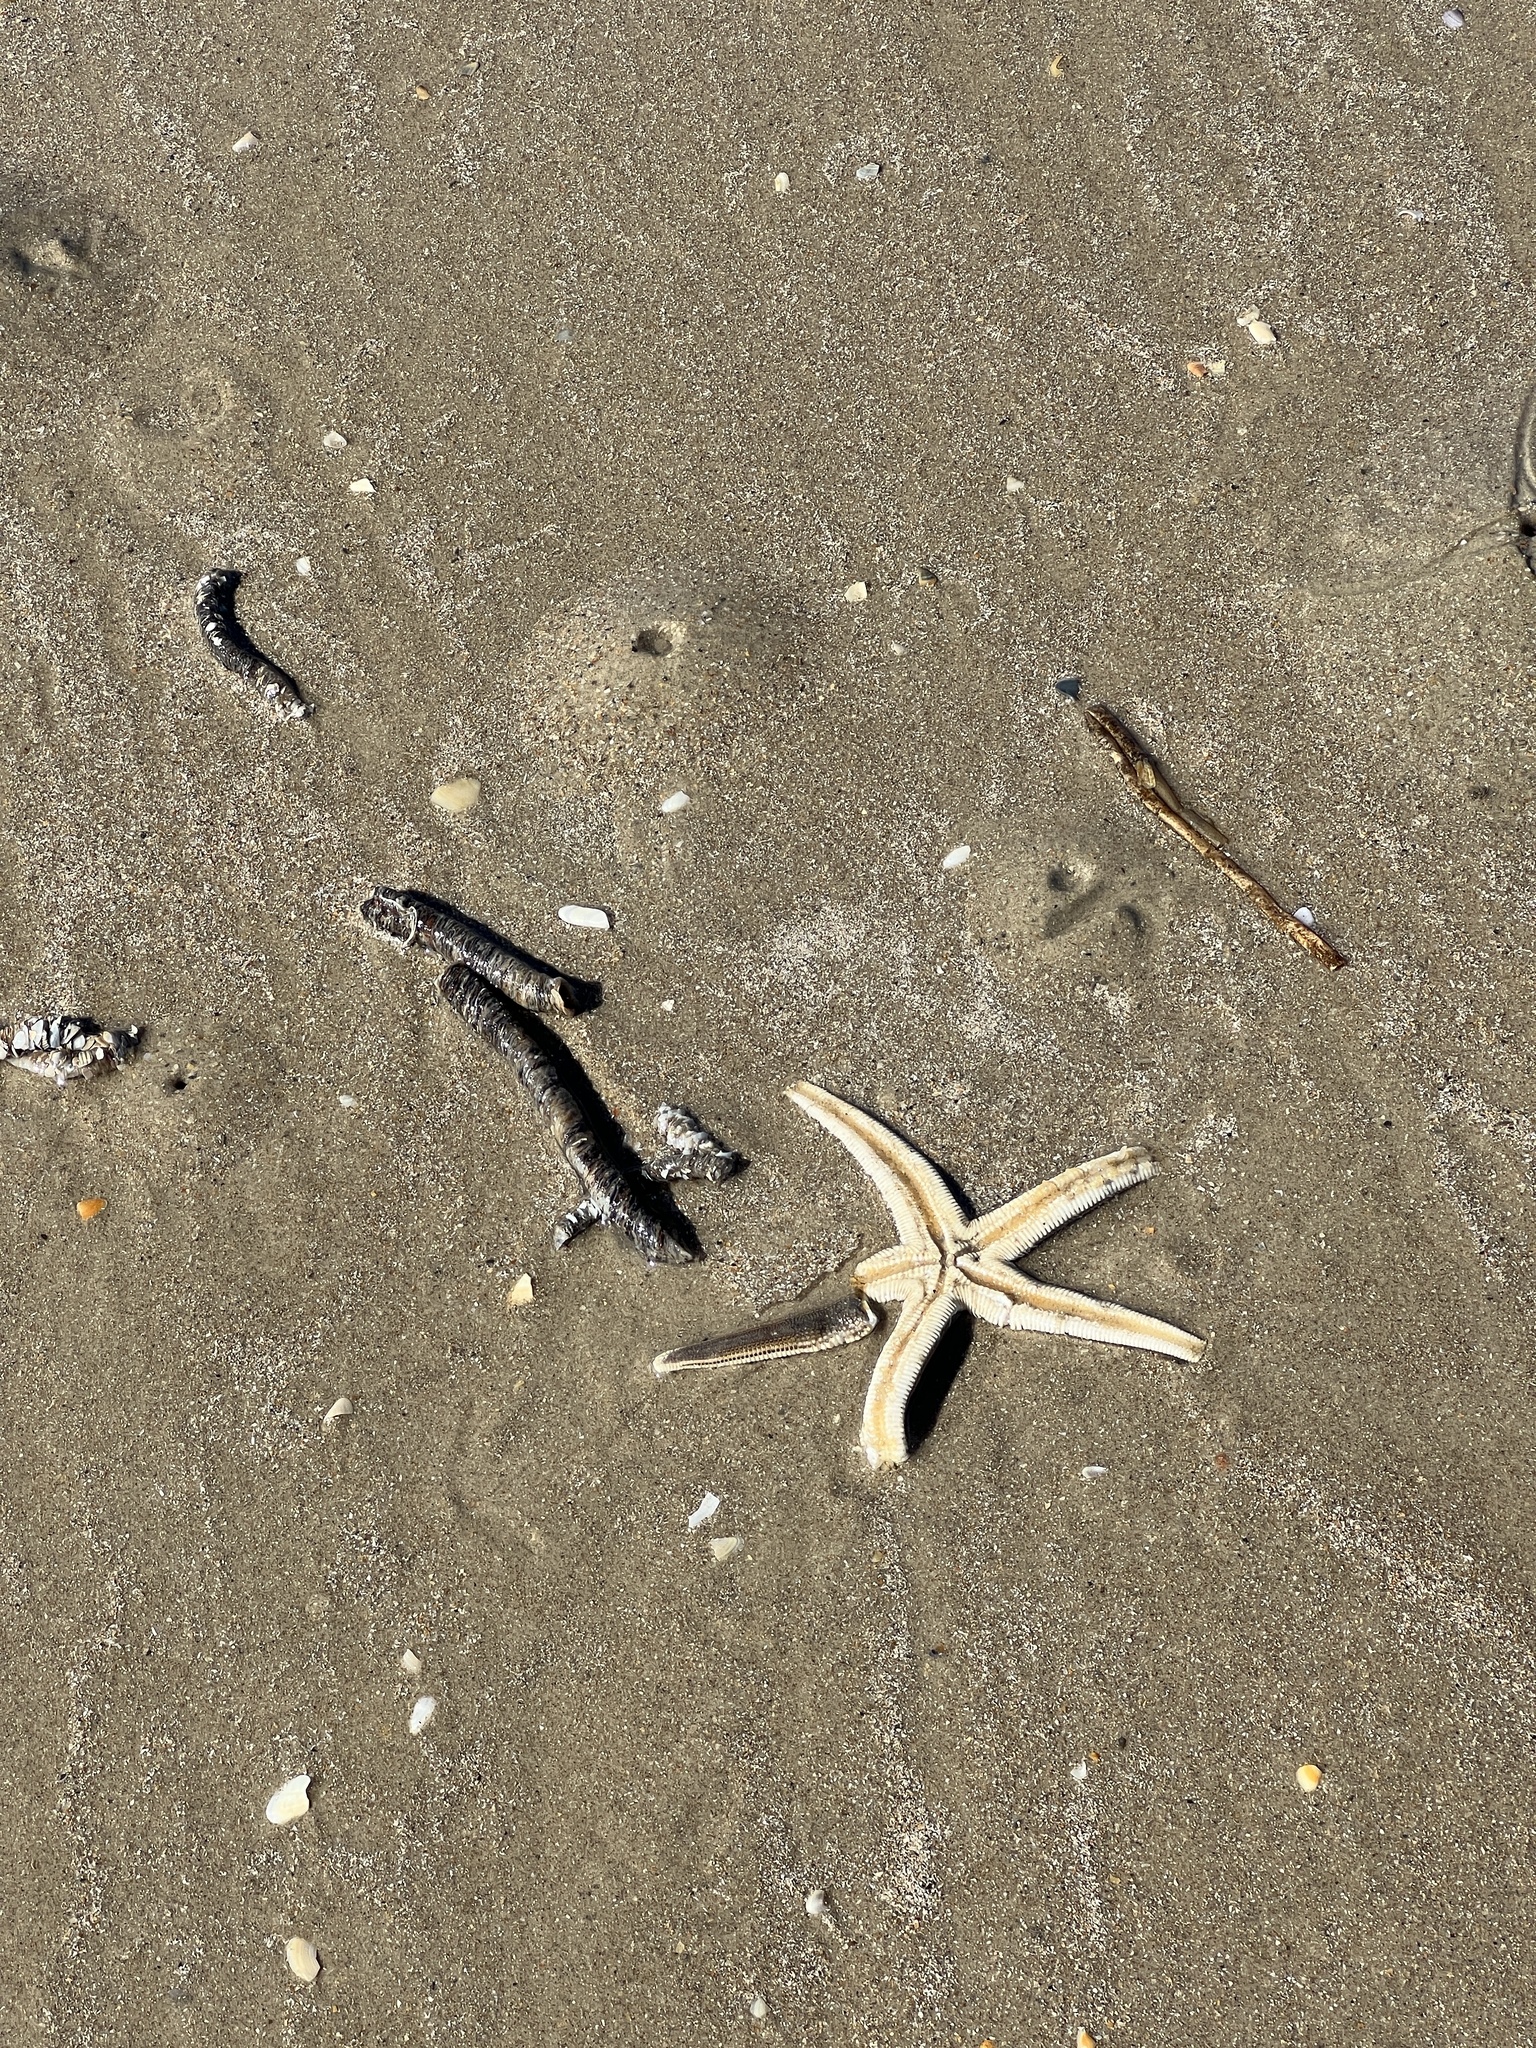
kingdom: Animalia
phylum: Echinodermata
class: Asteroidea
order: Paxillosida
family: Luidiidae
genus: Luidia
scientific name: Luidia clathrata
